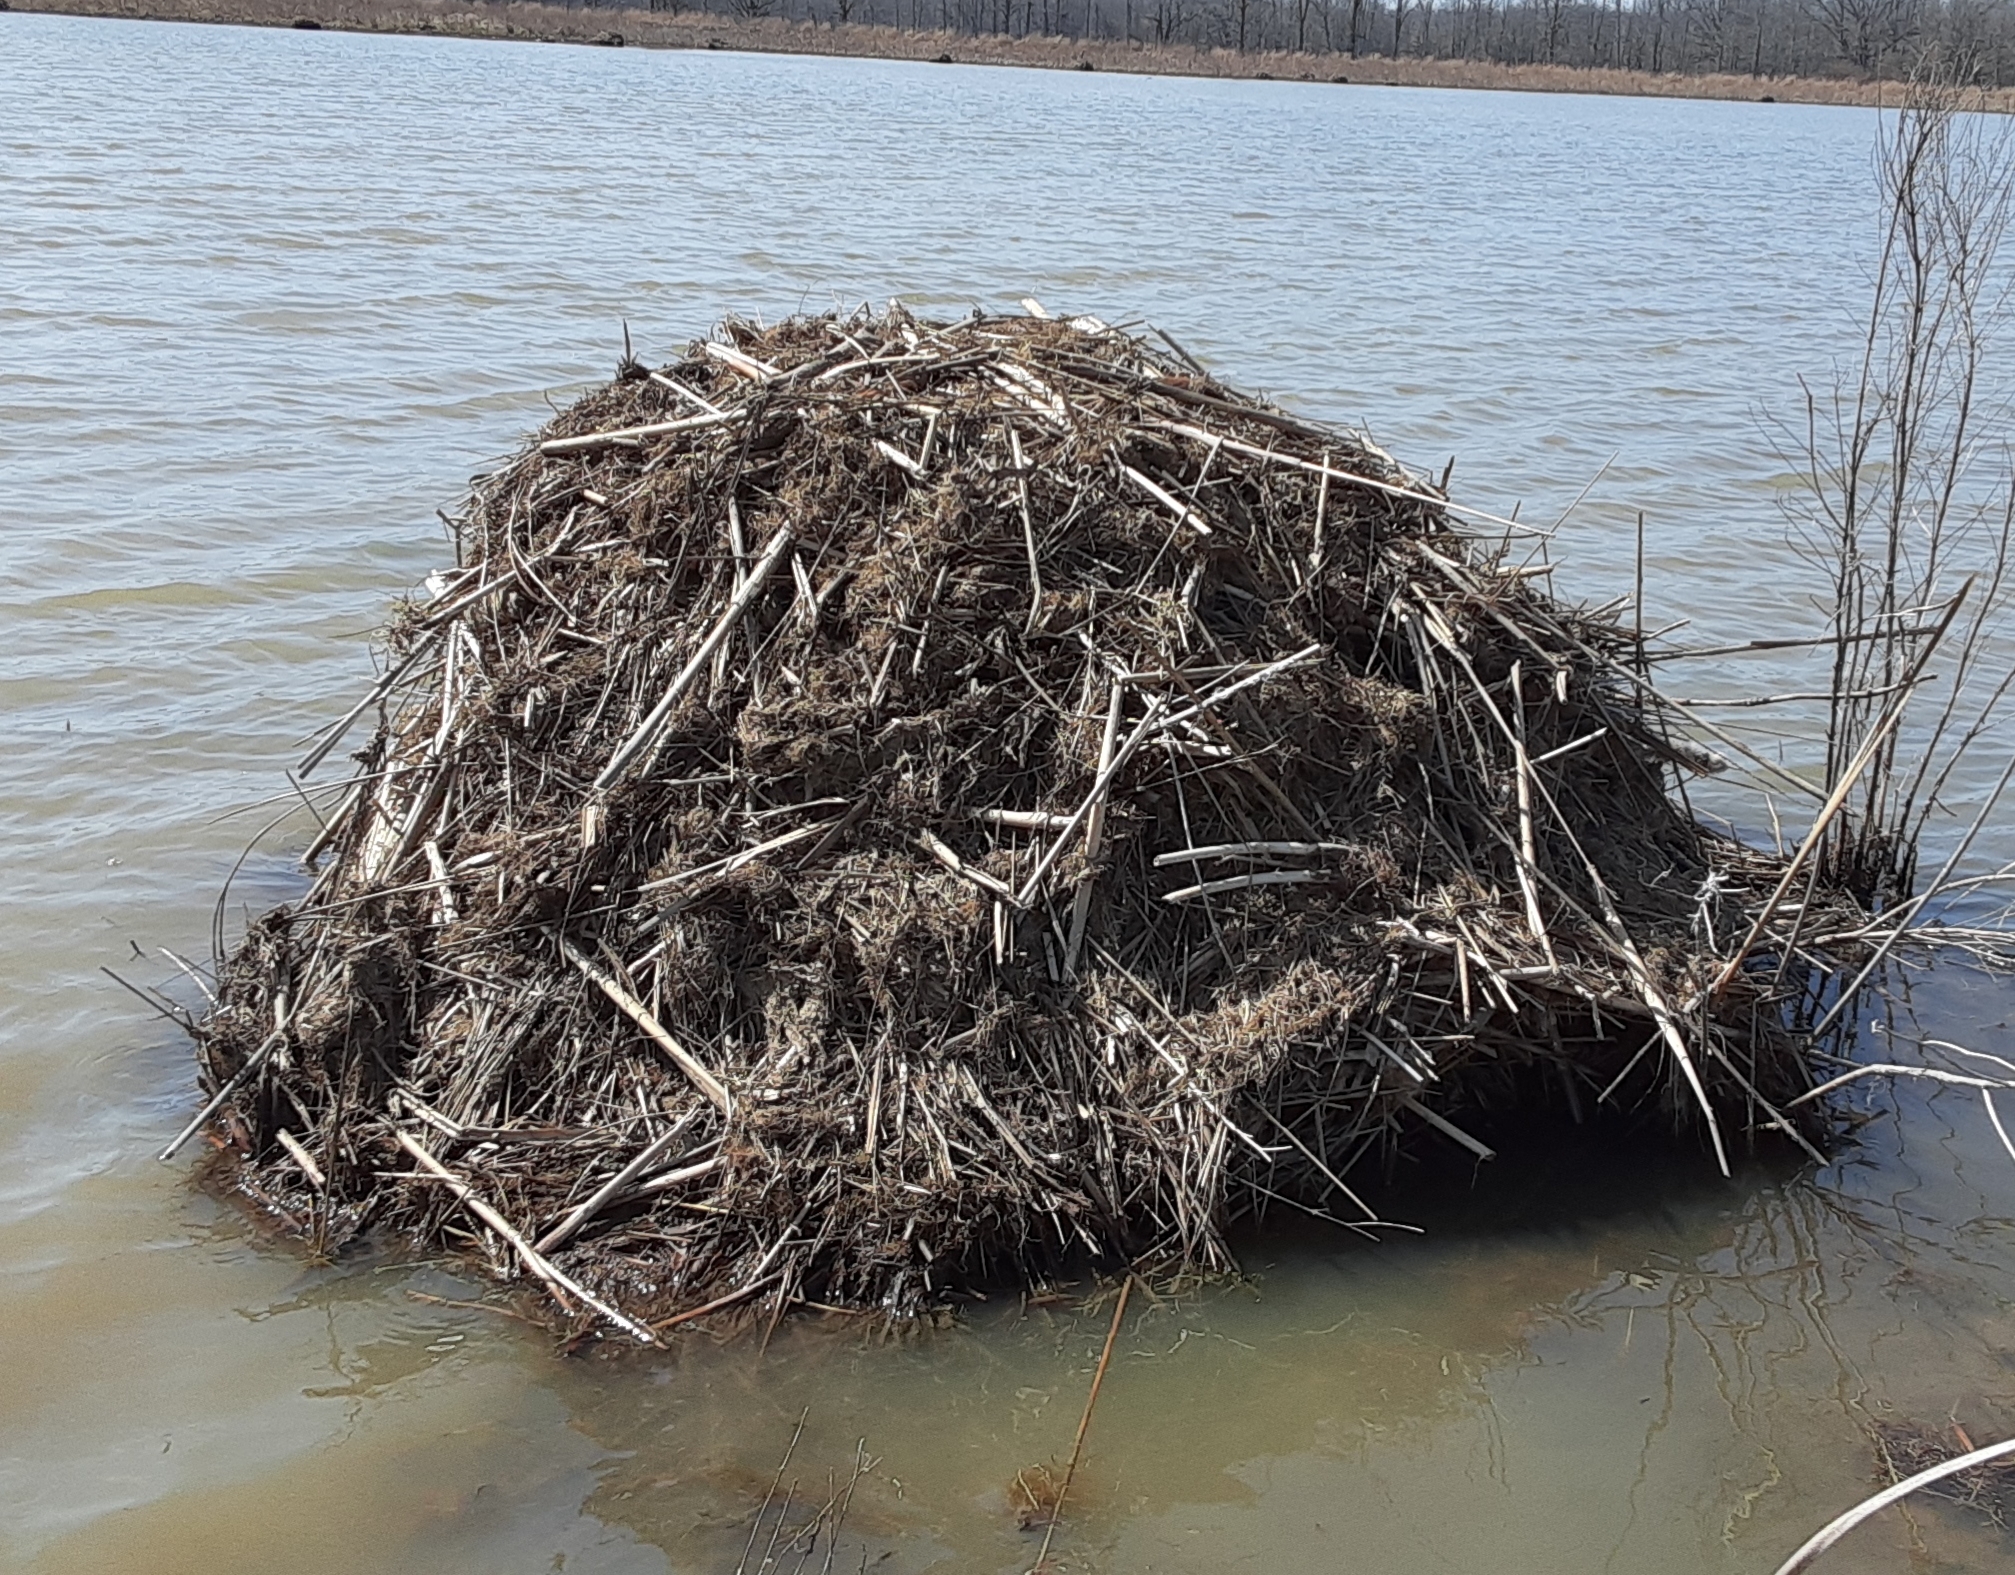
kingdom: Animalia
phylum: Chordata
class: Mammalia
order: Rodentia
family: Cricetidae
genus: Ondatra
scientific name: Ondatra zibethicus
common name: Muskrat
